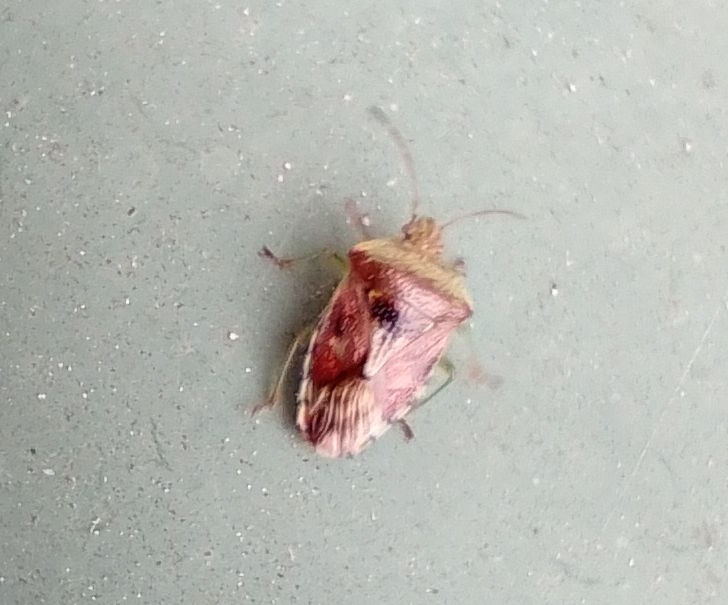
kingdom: Animalia
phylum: Arthropoda
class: Insecta
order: Hemiptera
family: Acanthosomatidae
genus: Elasmucha
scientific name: Elasmucha grisea
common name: Parent bug
